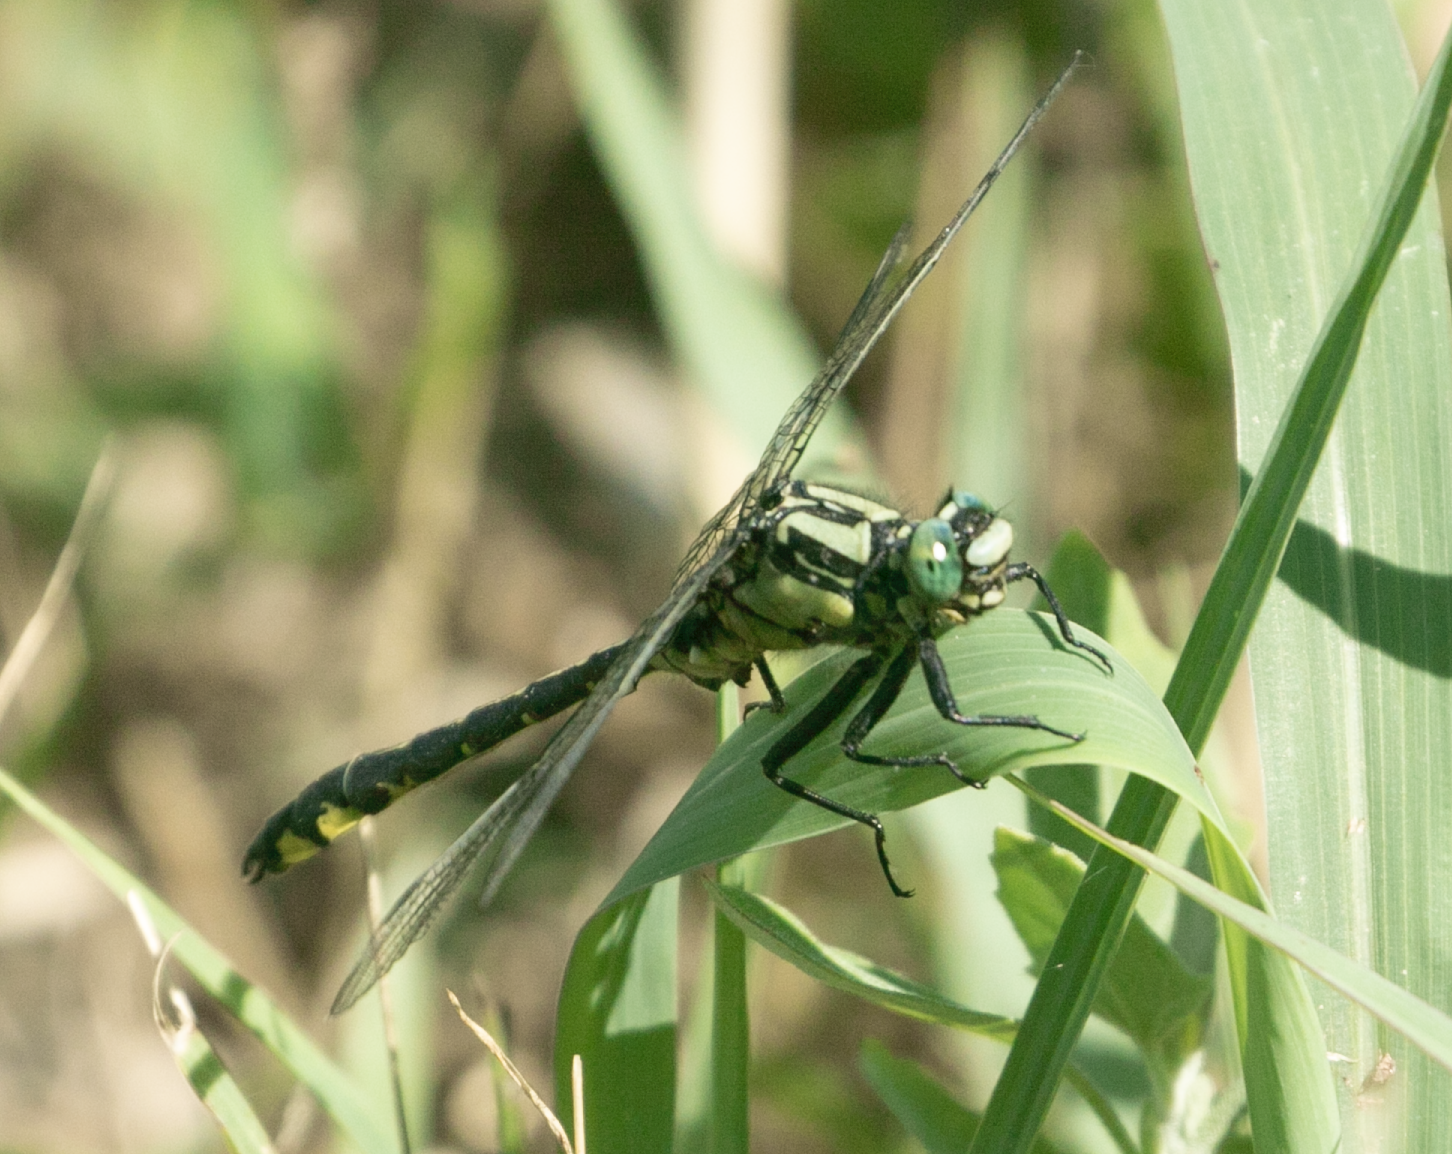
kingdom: Animalia
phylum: Arthropoda
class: Insecta
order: Odonata
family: Gomphidae
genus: Gomphus
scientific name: Gomphus vulgatissimus
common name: Club-tailed dragonfly
